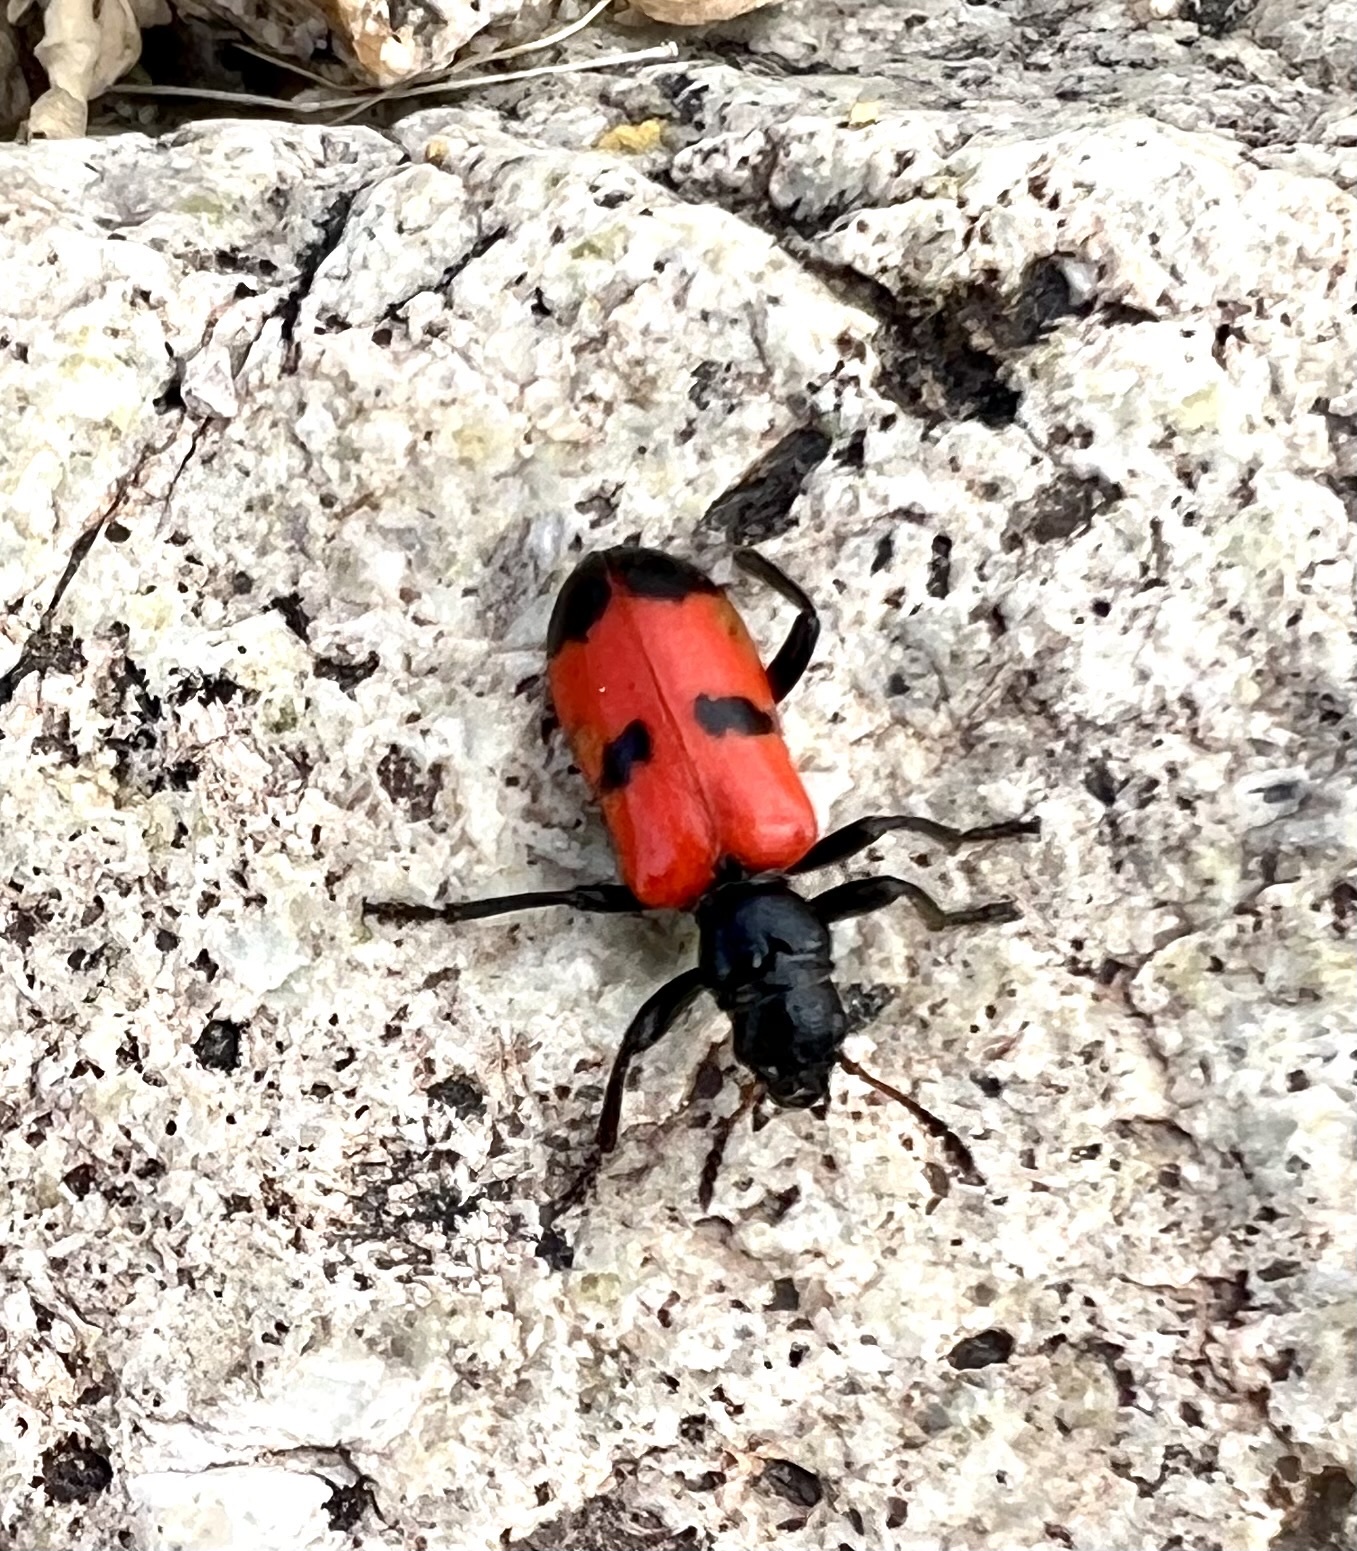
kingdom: Animalia
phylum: Arthropoda
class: Insecta
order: Coleoptera
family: Cleridae
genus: Aulicus
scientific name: Aulicus edwardsi
